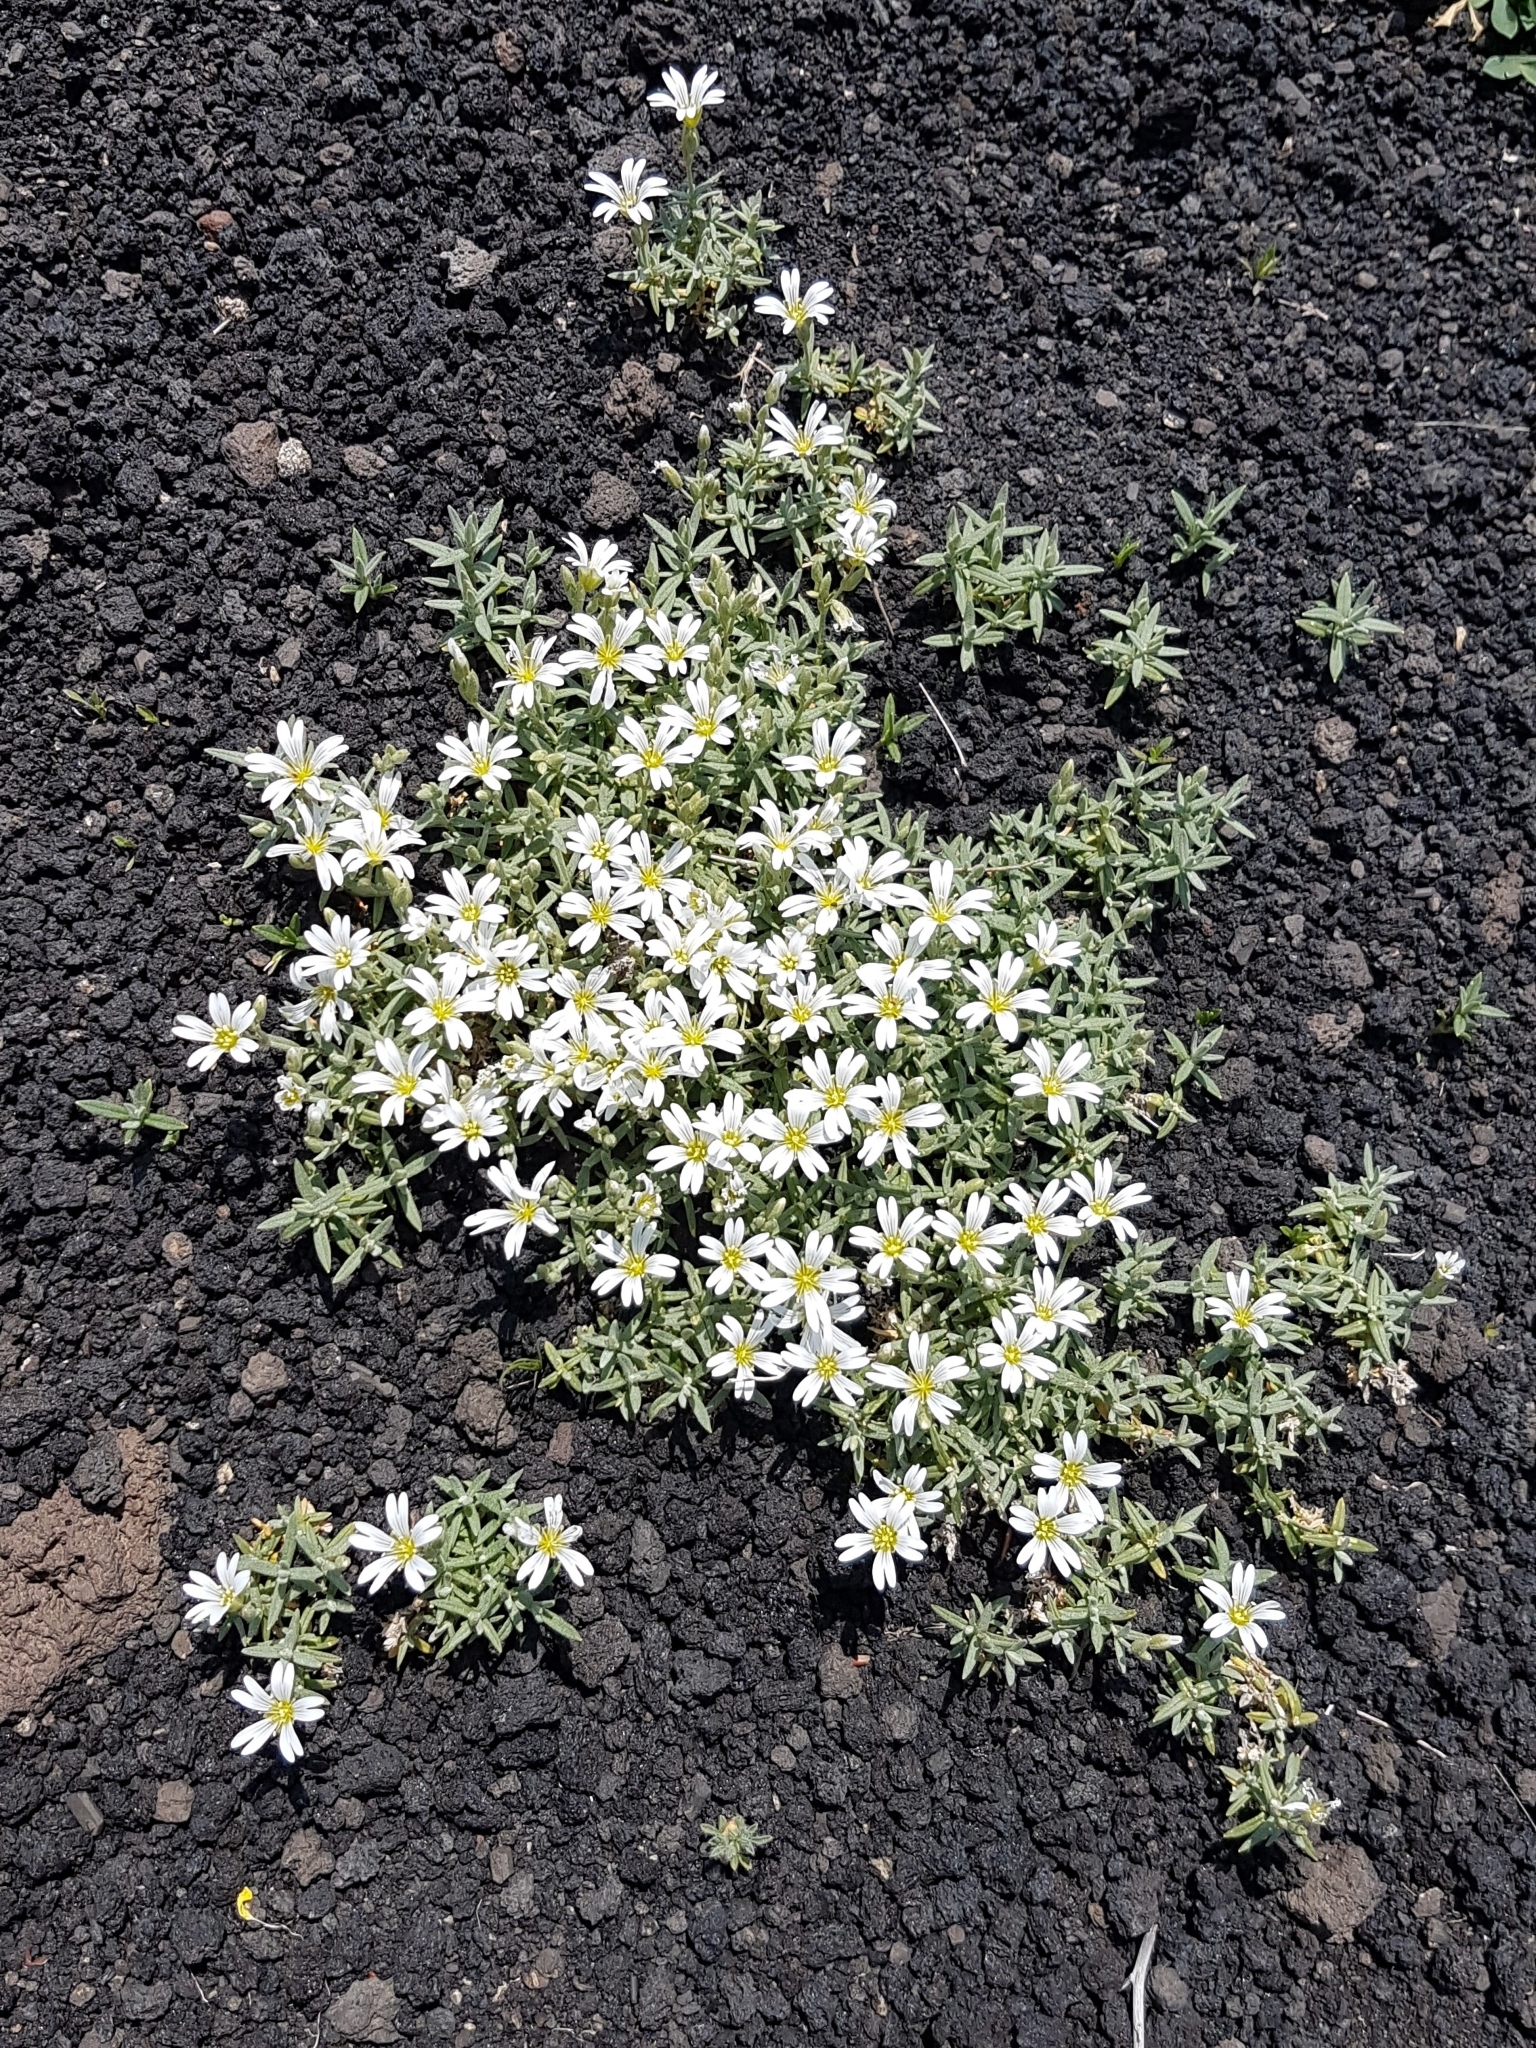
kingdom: Plantae
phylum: Tracheophyta
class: Magnoliopsida
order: Caryophyllales
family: Caryophyllaceae
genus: Cerastium
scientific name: Cerastium tomentosum
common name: Snow-in-summer
